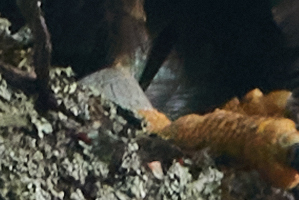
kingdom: Animalia
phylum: Chordata
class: Aves
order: Accipitriformes
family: Accipitridae
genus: Haliaeetus
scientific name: Haliaeetus leucocephalus
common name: Bald eagle
